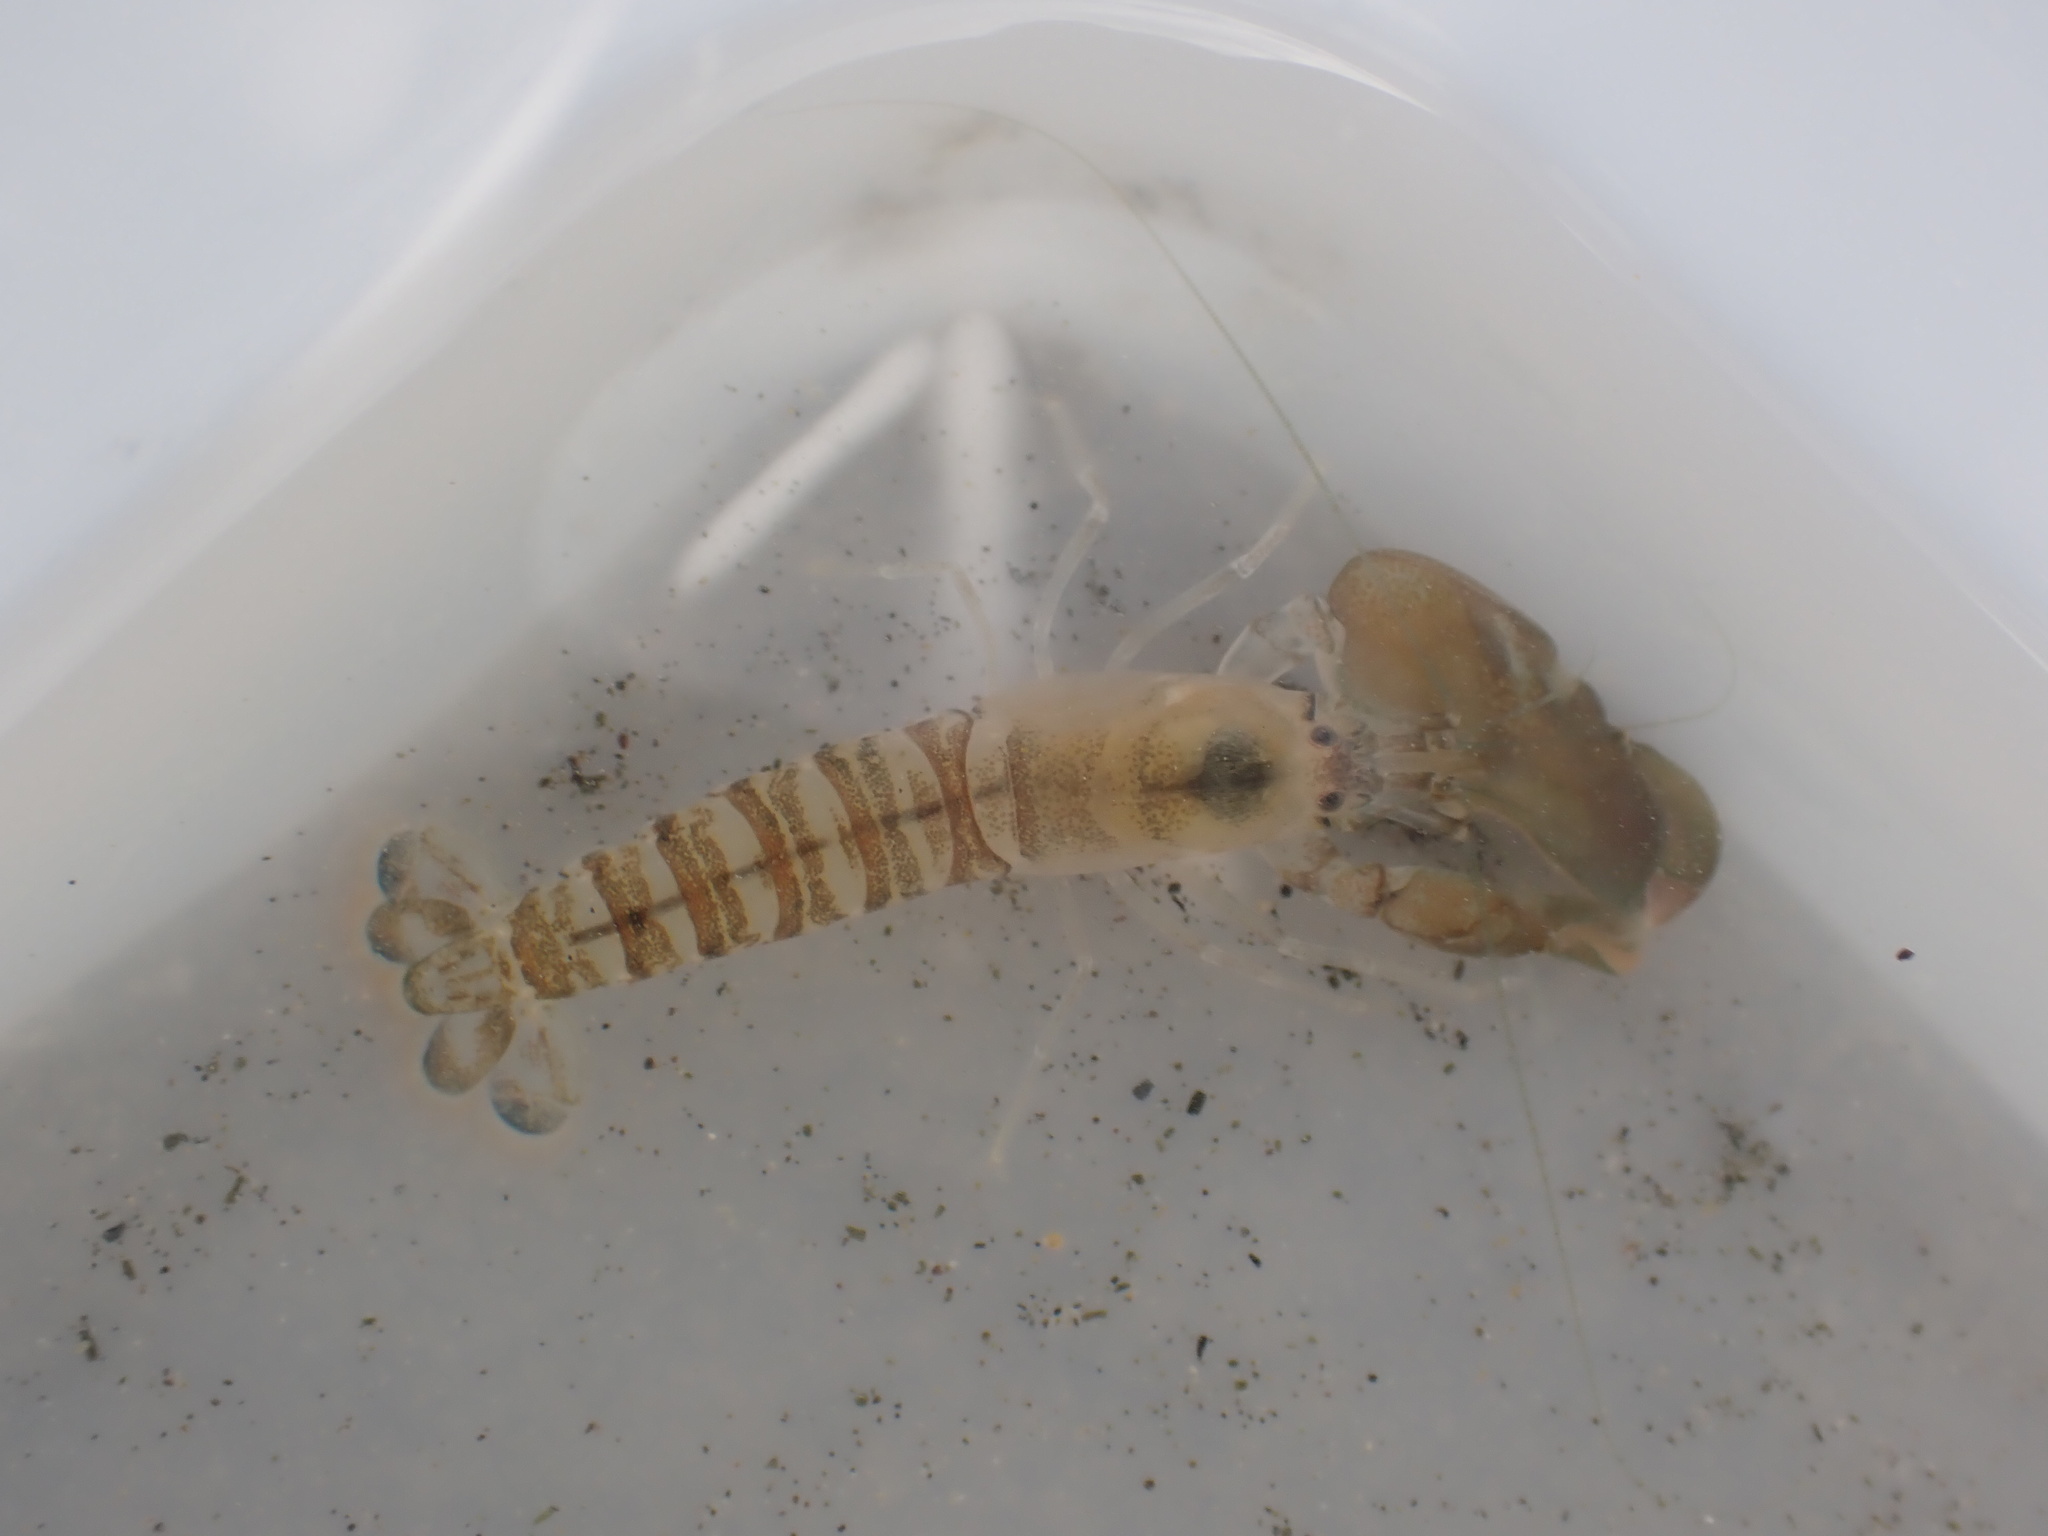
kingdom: Animalia
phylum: Arthropoda
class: Malacostraca
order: Decapoda
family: Alpheidae
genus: Alpheus
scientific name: Alpheus richardsoni
